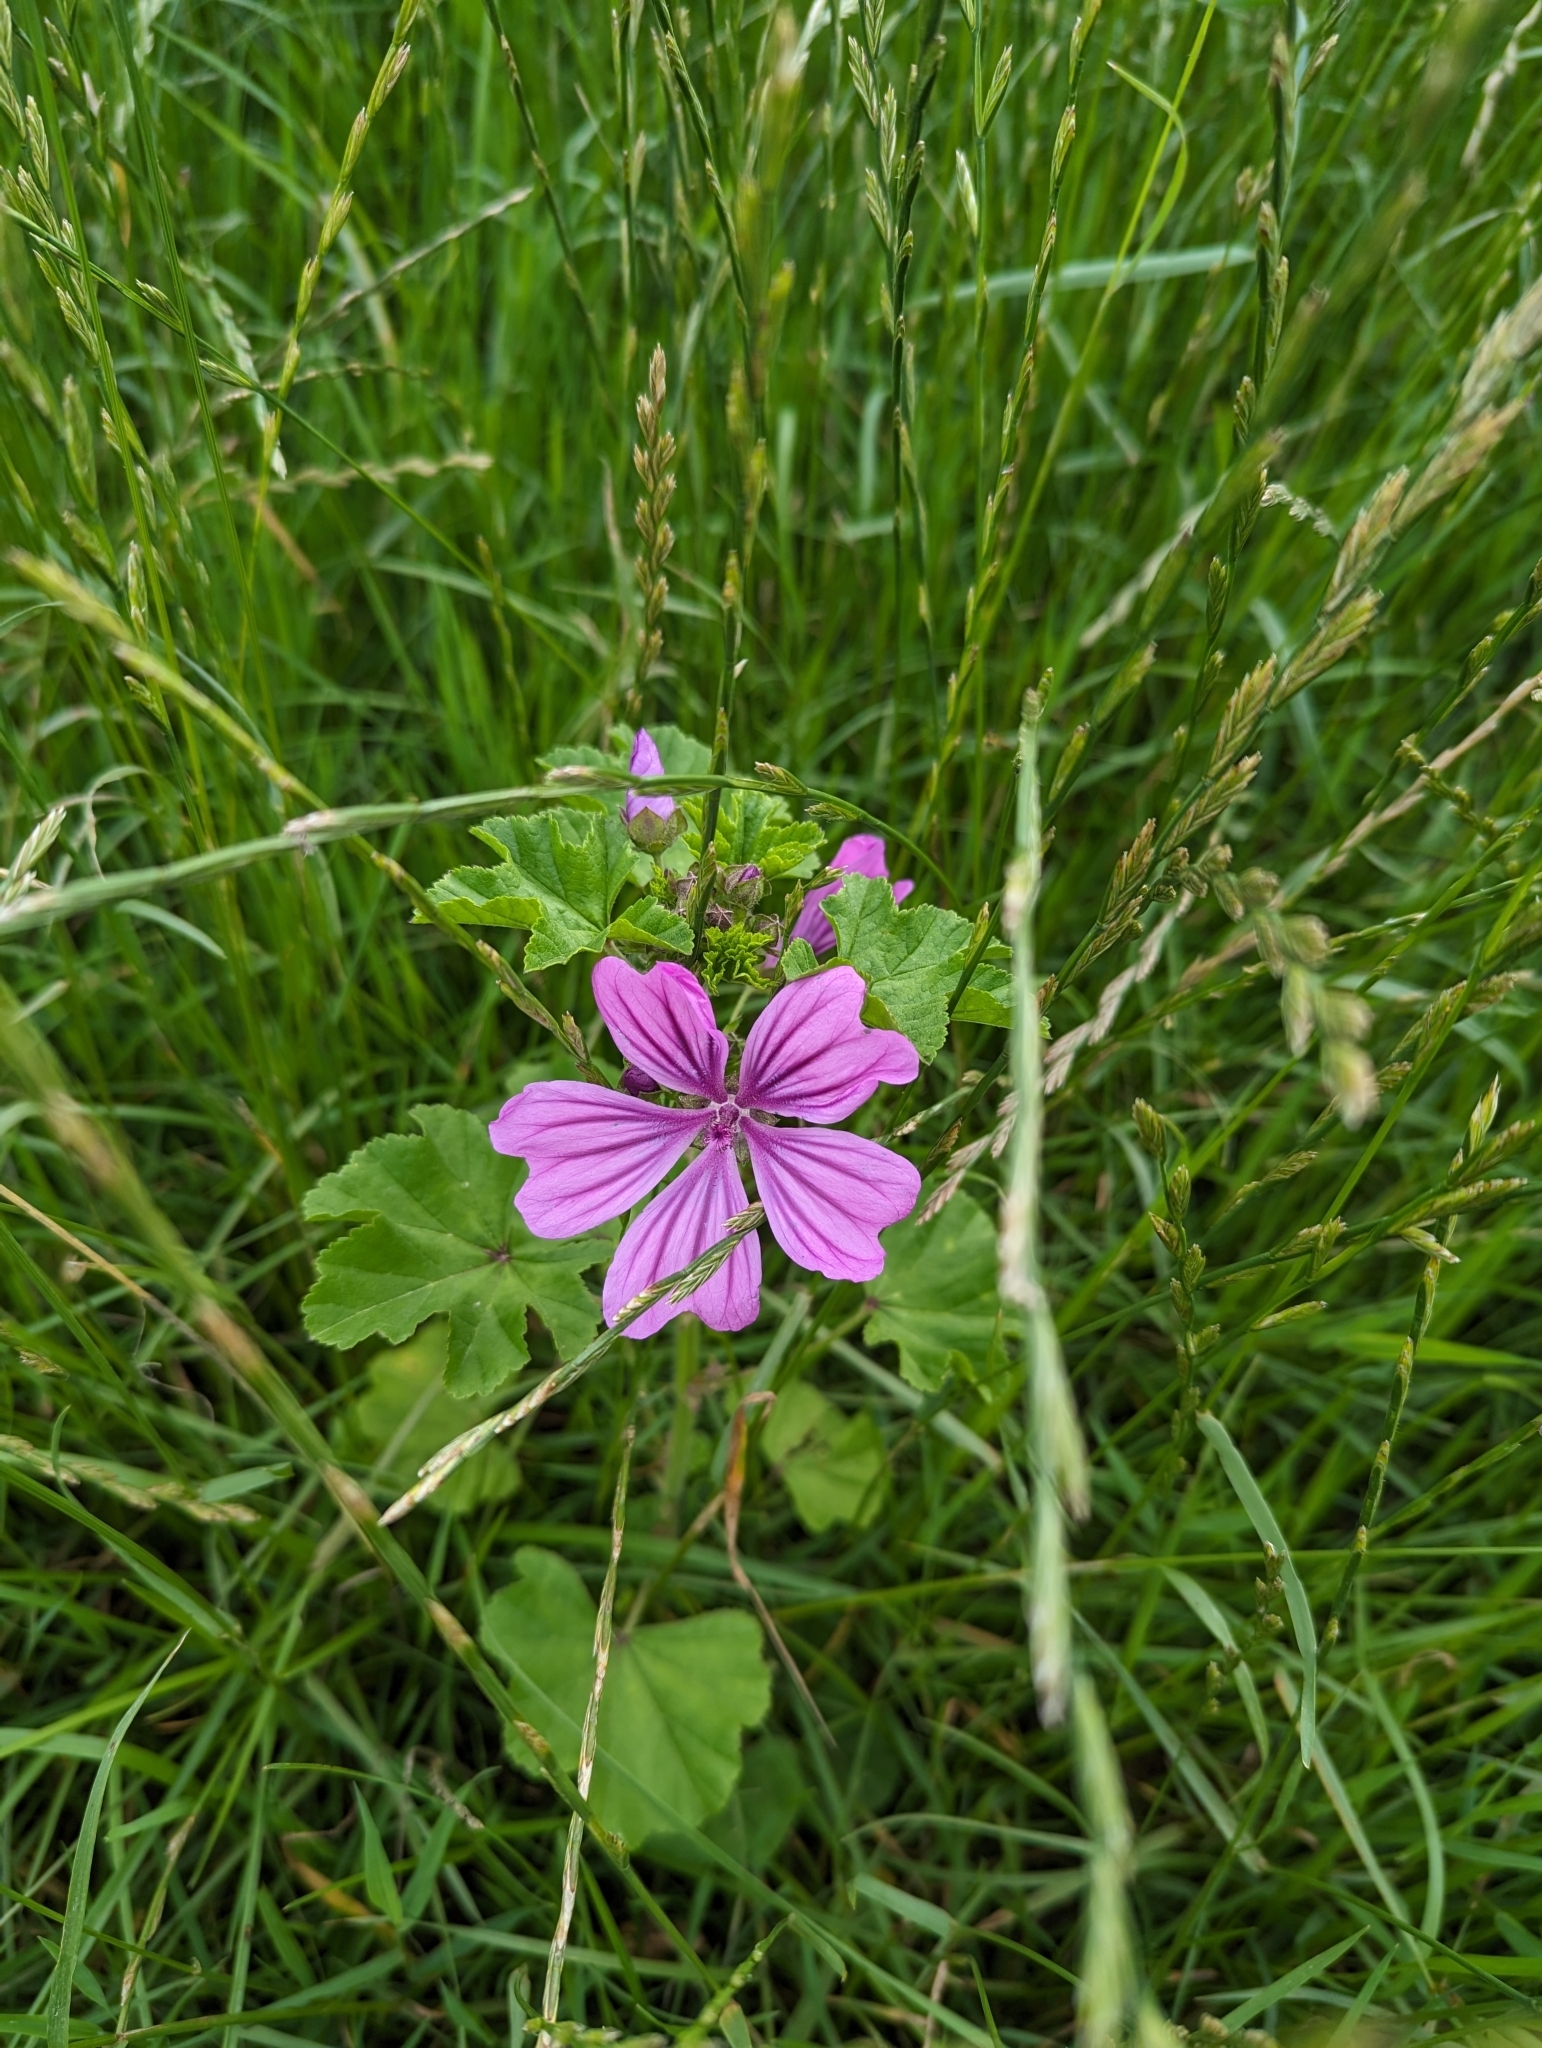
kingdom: Plantae
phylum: Tracheophyta
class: Magnoliopsida
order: Malvales
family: Malvaceae
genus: Malva
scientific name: Malva sylvestris
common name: Common mallow
